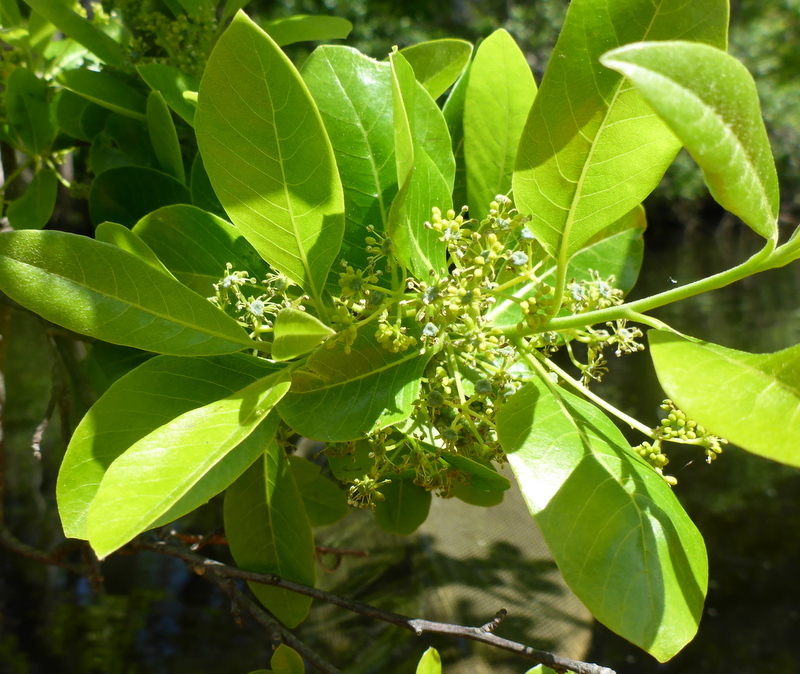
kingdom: Plantae
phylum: Tracheophyta
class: Magnoliopsida
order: Cornales
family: Nyssaceae
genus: Nyssa
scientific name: Nyssa biflora
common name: Swamp blackgum
